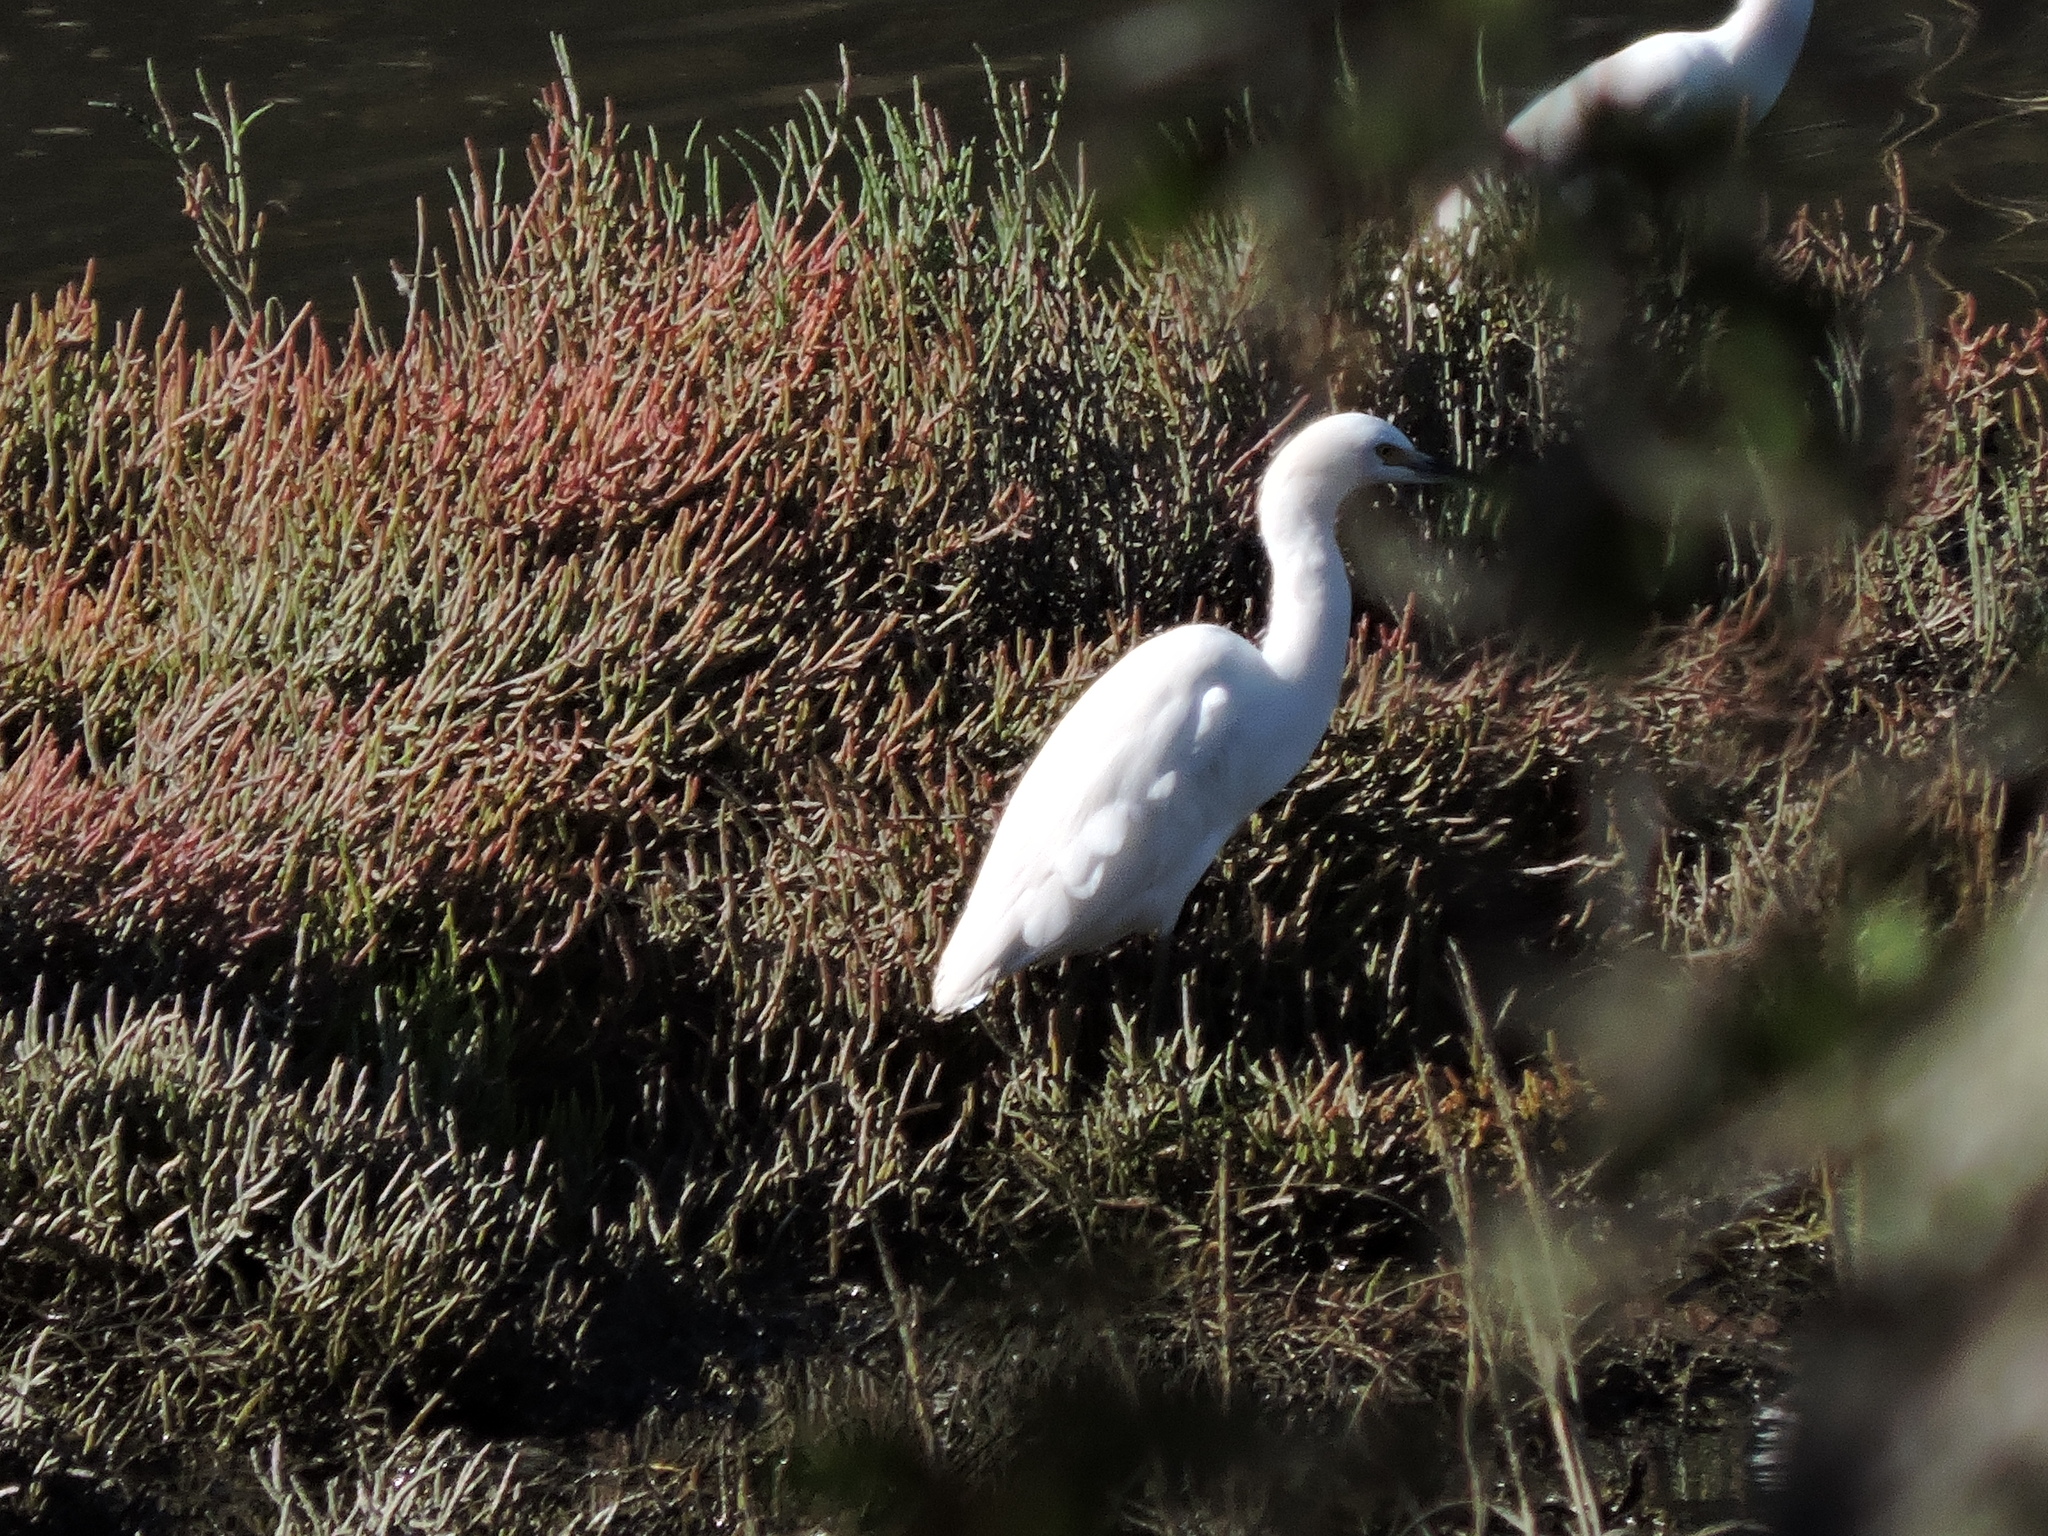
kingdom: Animalia
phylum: Chordata
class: Aves
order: Pelecaniformes
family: Ardeidae
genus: Egretta
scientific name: Egretta thula
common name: Snowy egret
